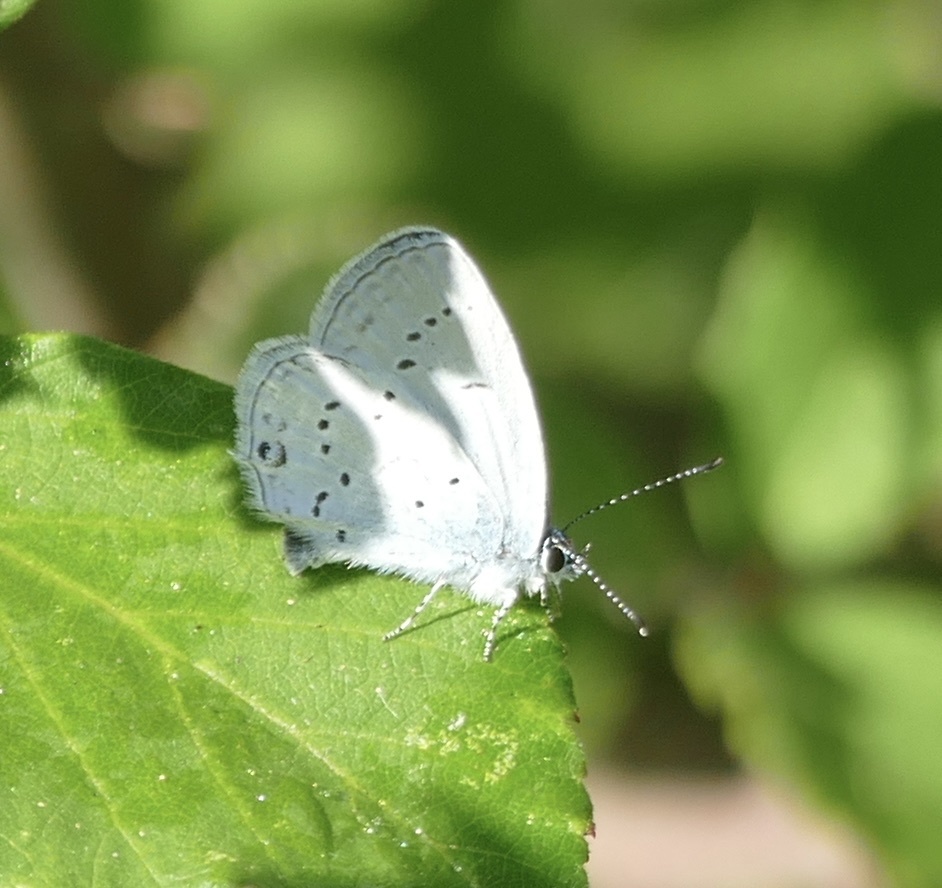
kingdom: Animalia
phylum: Arthropoda
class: Insecta
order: Lepidoptera
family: Lycaenidae
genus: Elkalyce
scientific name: Elkalyce alcetas
